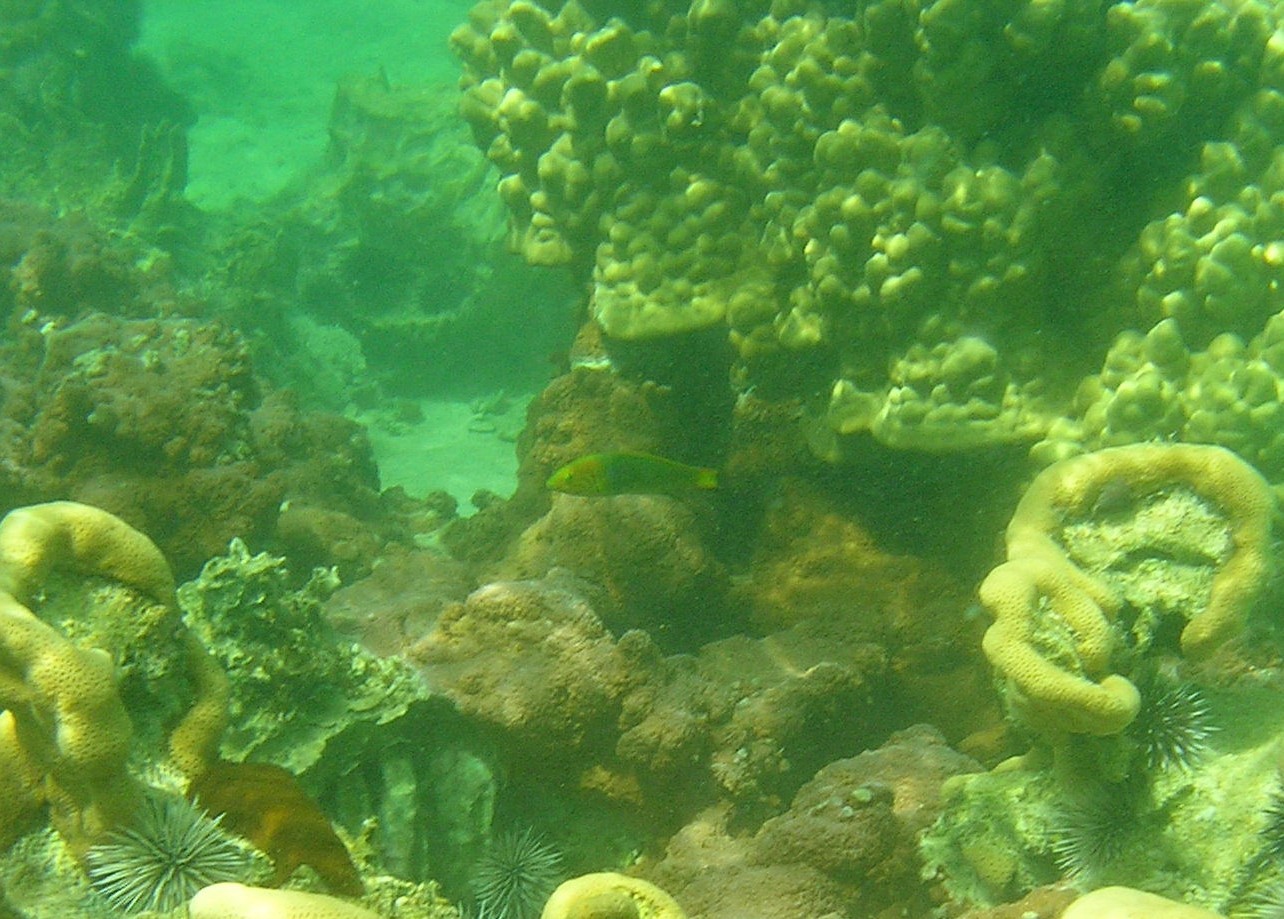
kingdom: Animalia
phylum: Chordata
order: Perciformes
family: Labridae
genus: Thalassoma
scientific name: Thalassoma lutescens
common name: Green moon wrasse
